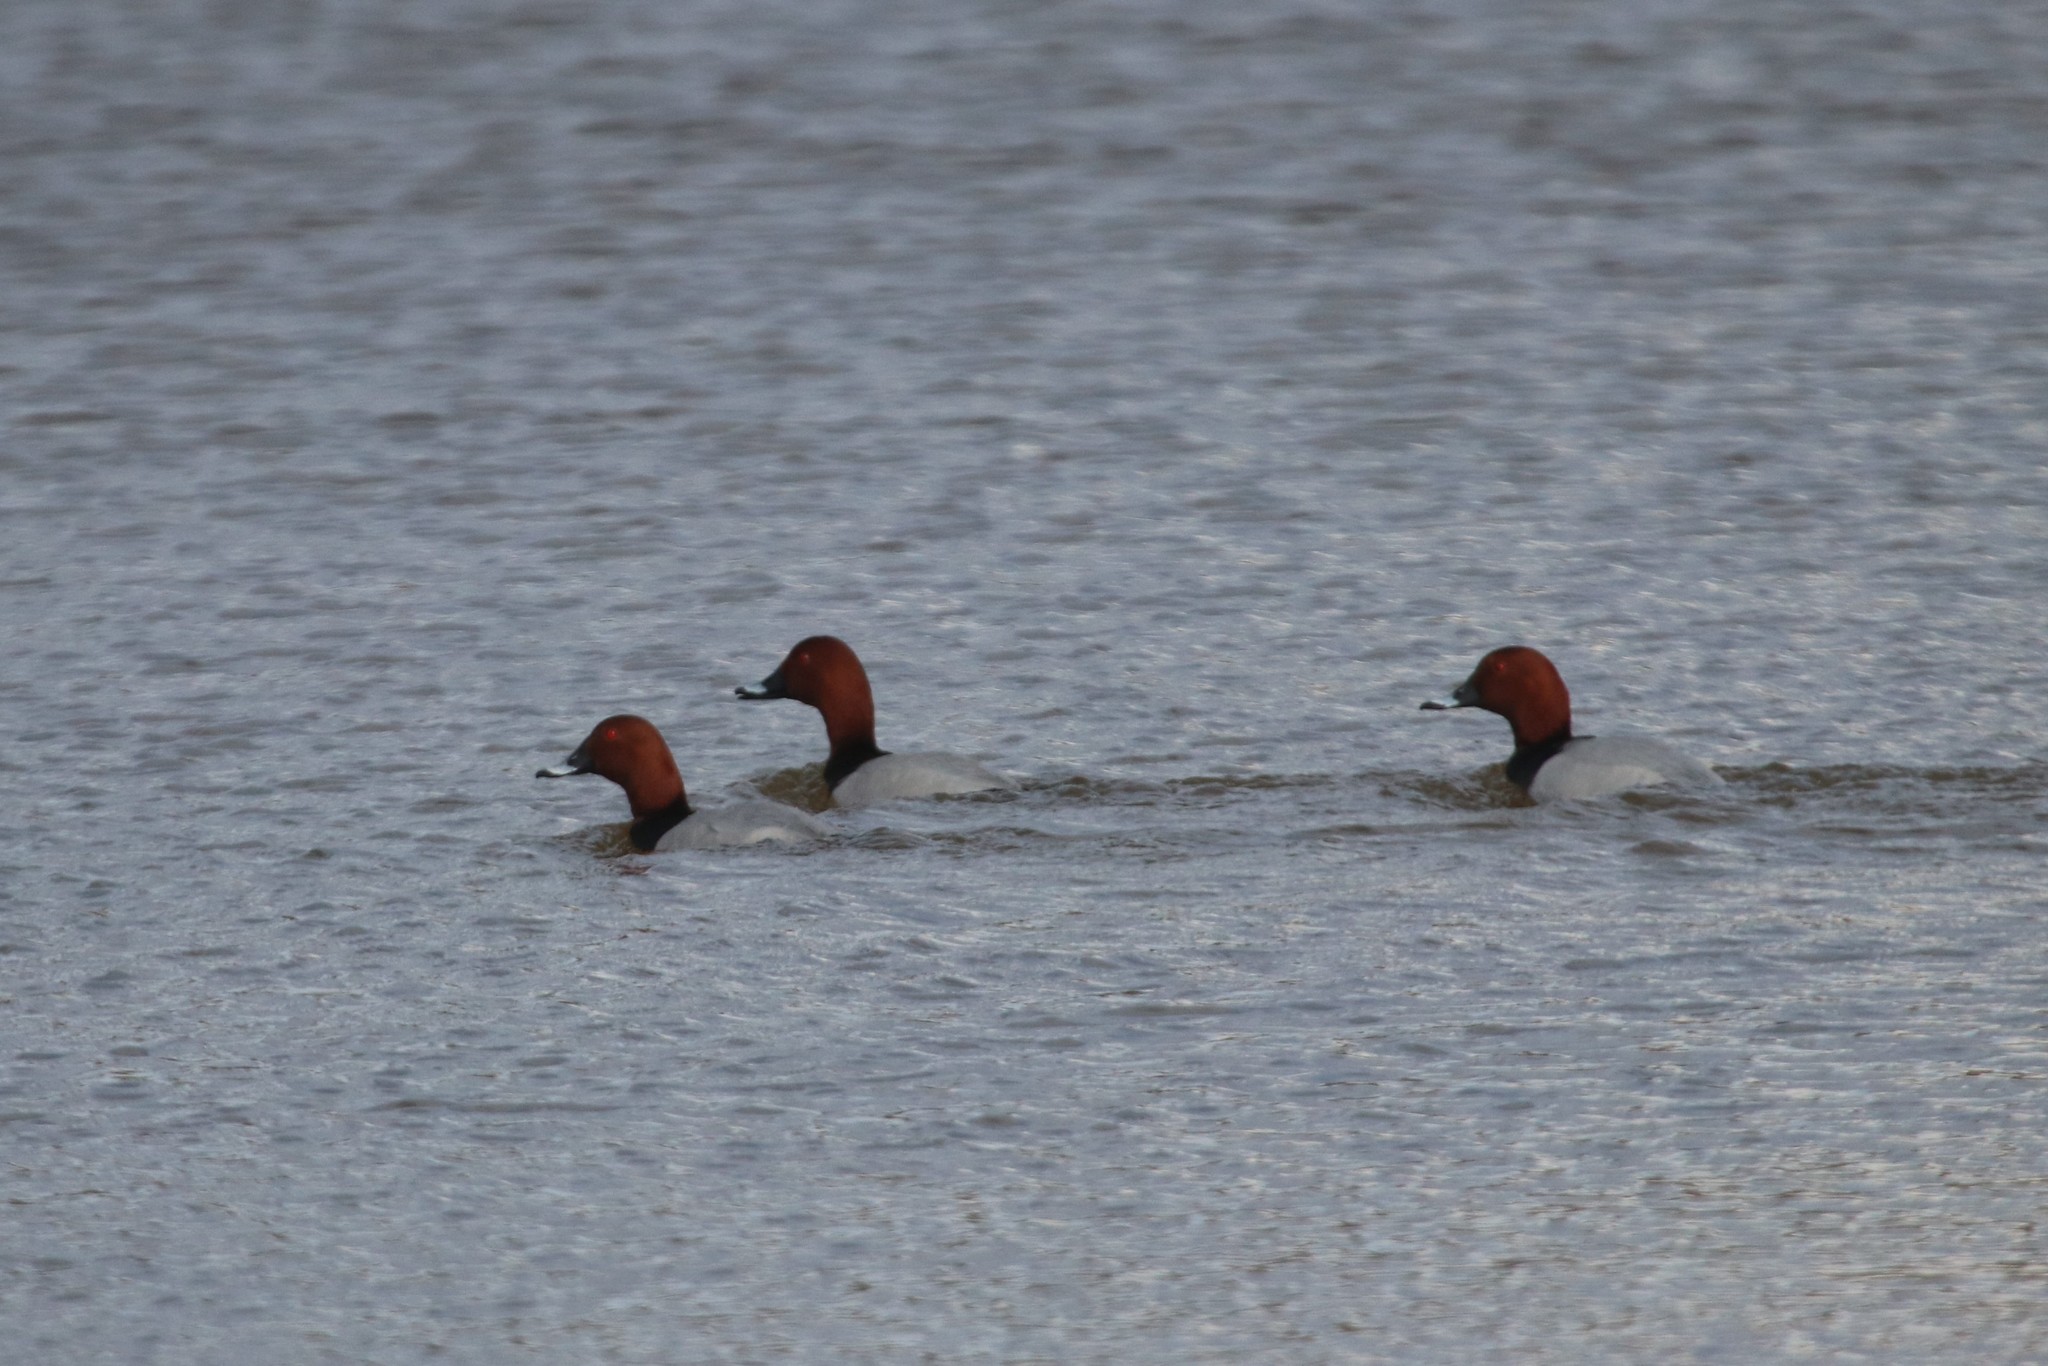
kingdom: Animalia
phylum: Chordata
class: Aves
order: Anseriformes
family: Anatidae
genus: Aythya
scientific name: Aythya ferina
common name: Common pochard
